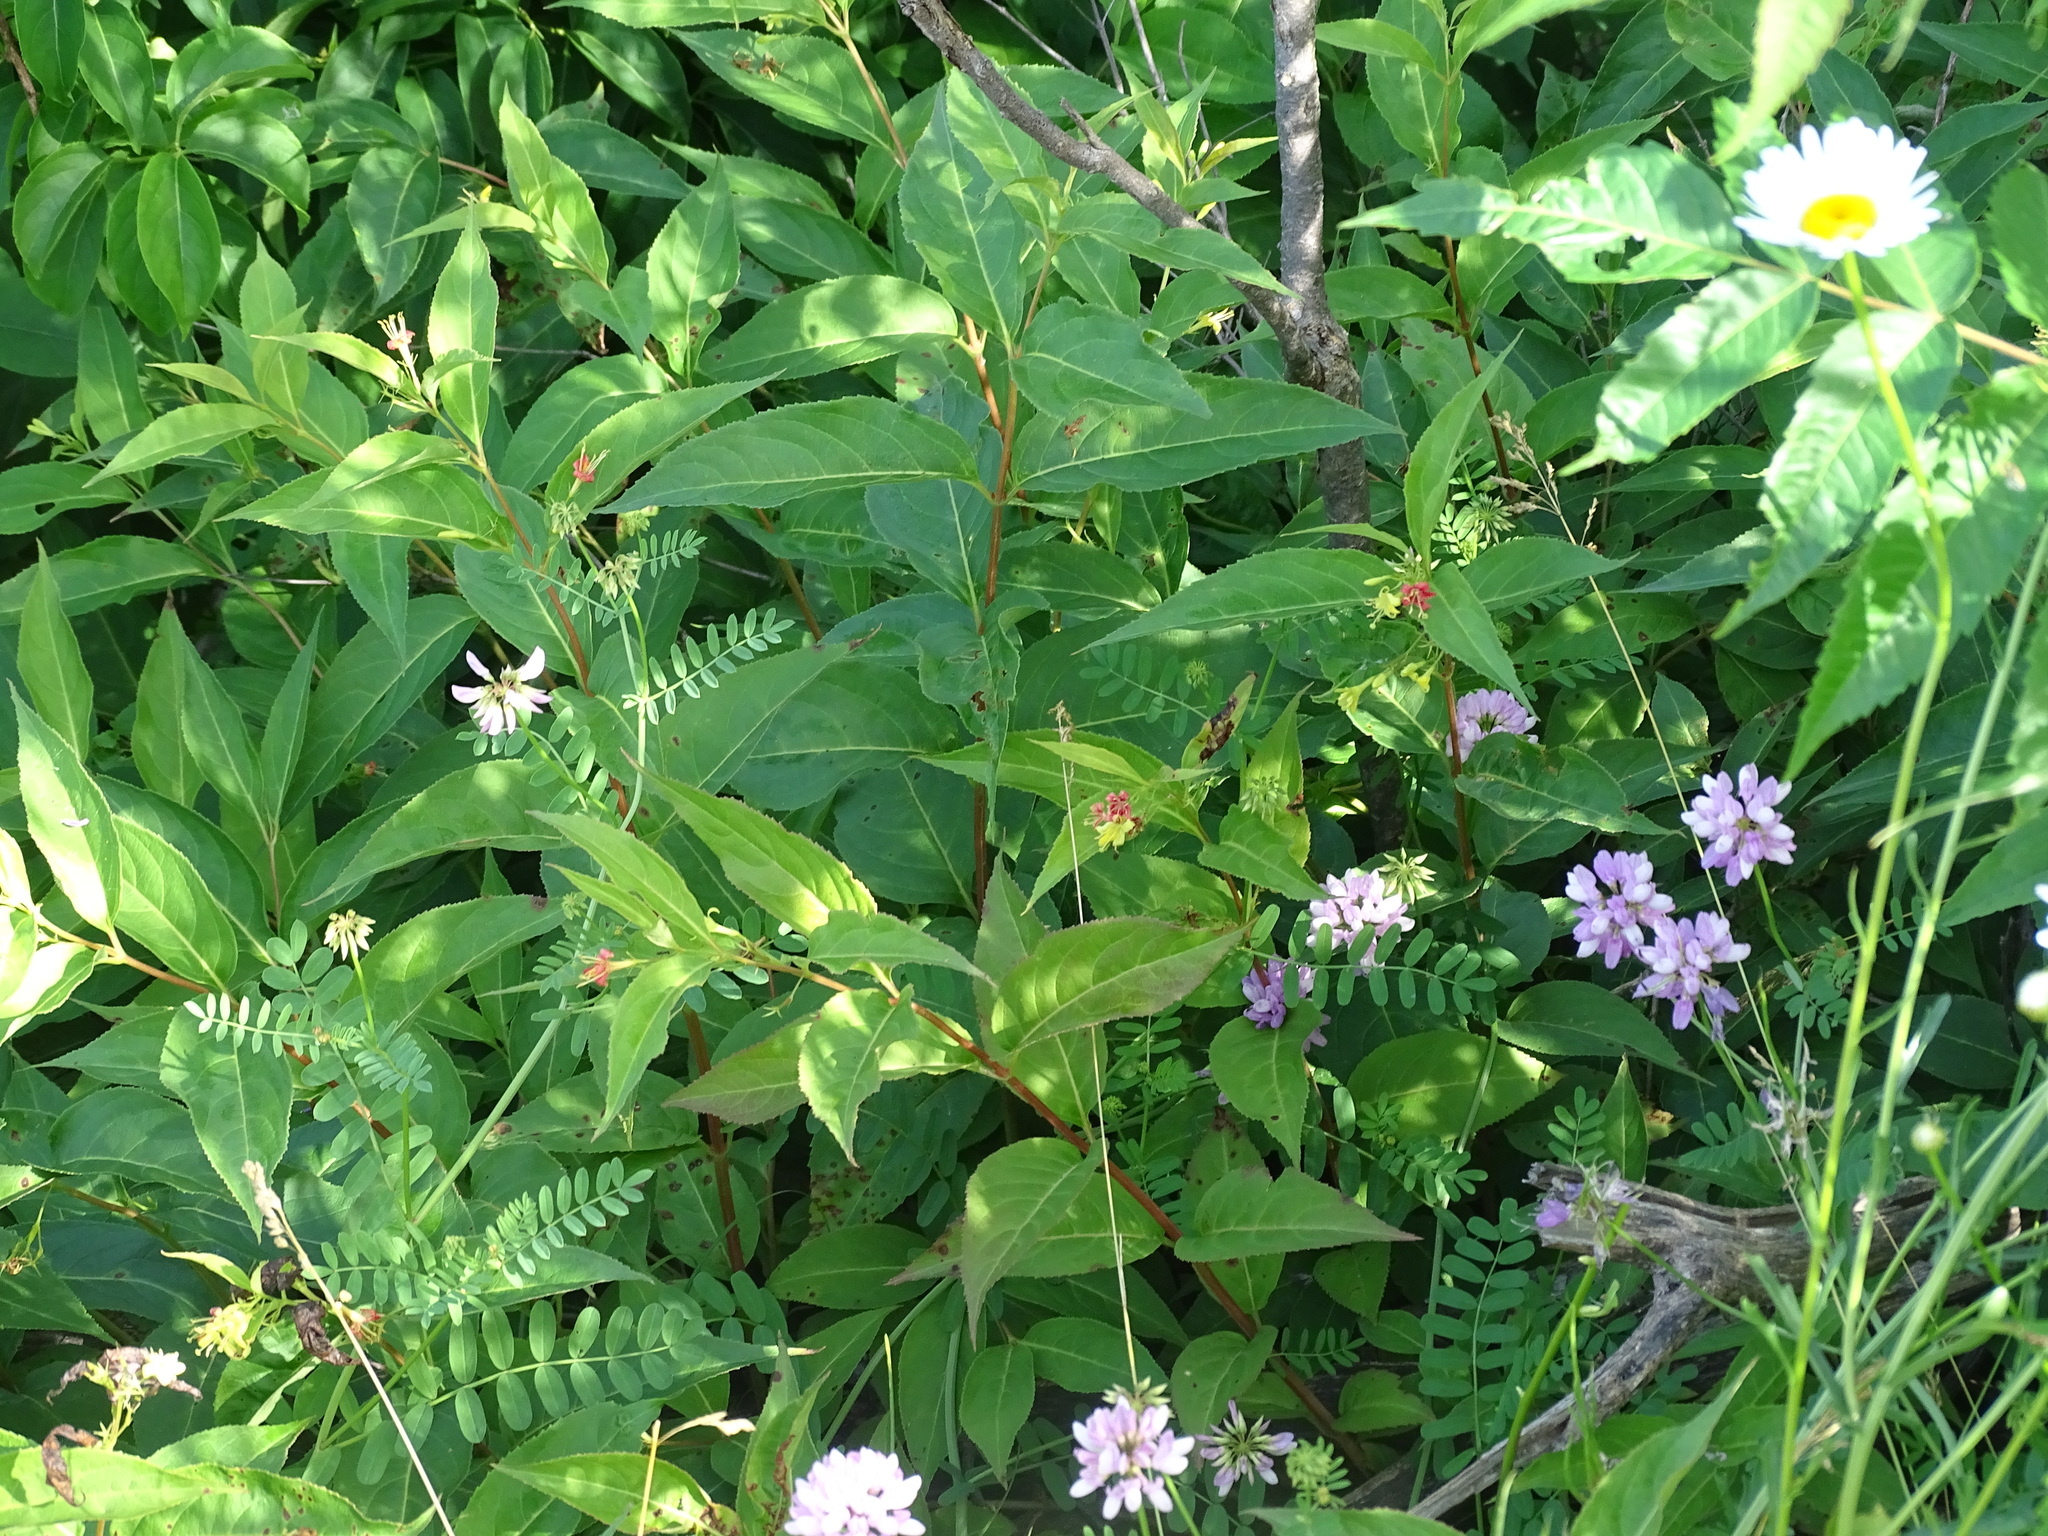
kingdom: Plantae
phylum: Tracheophyta
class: Magnoliopsida
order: Dipsacales
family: Caprifoliaceae
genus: Diervilla
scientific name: Diervilla lonicera
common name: Bush-honeysuckle
